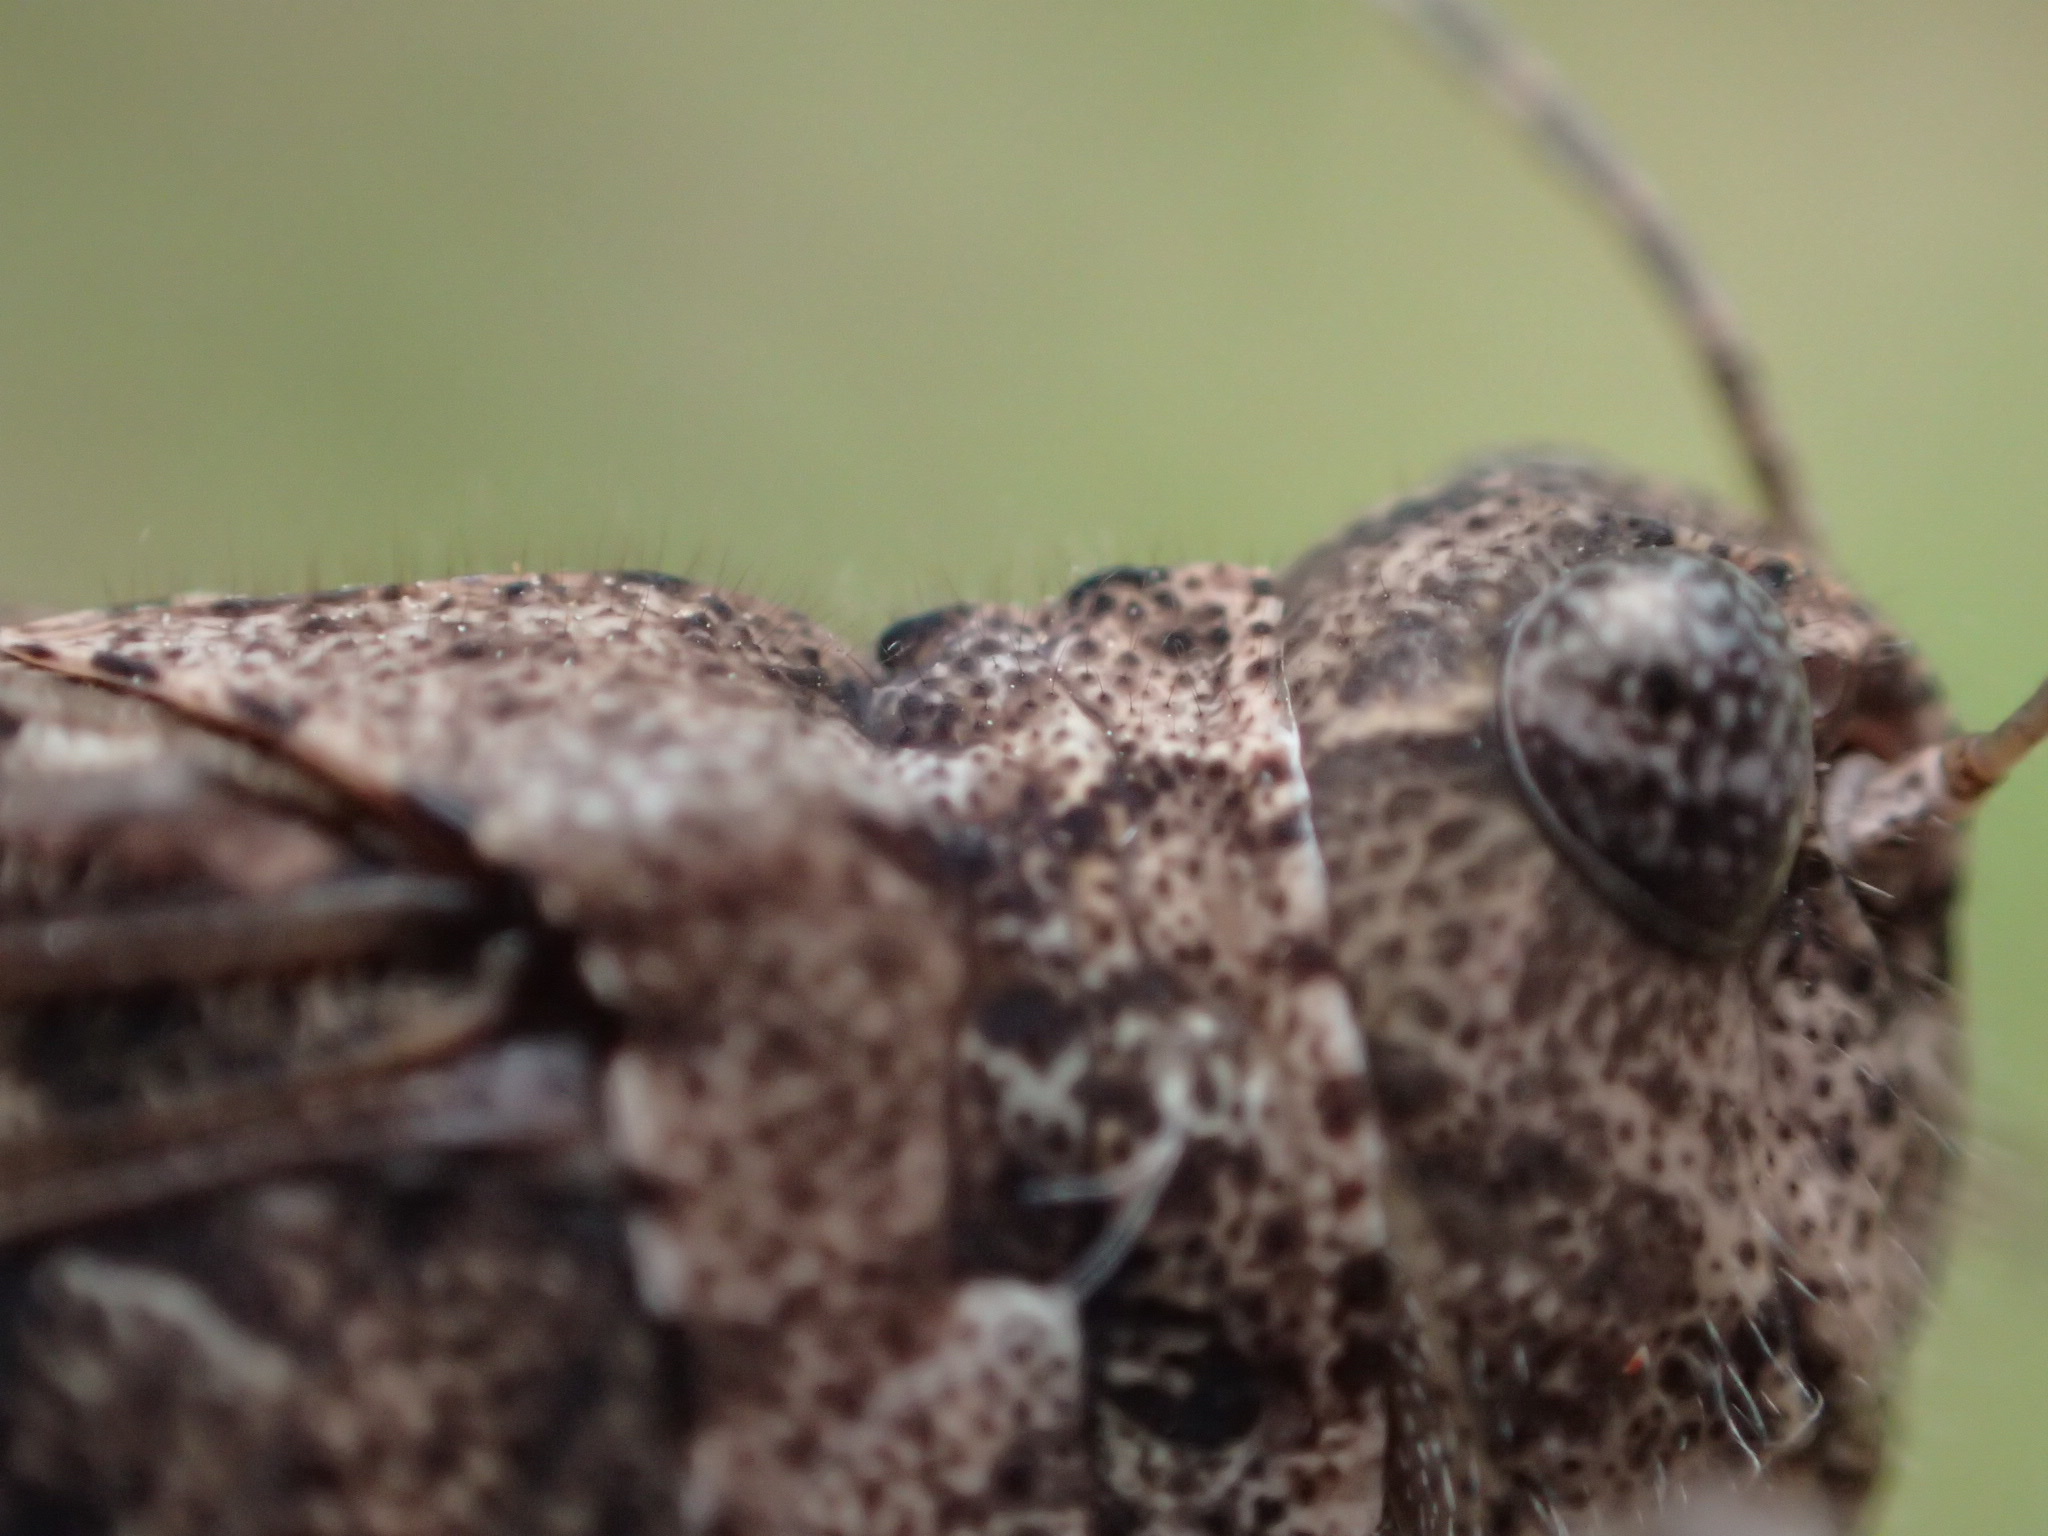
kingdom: Animalia
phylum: Arthropoda
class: Insecta
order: Orthoptera
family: Acrididae
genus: Trimerotropis
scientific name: Trimerotropis verruculata
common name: Crackling forest grasshopper
